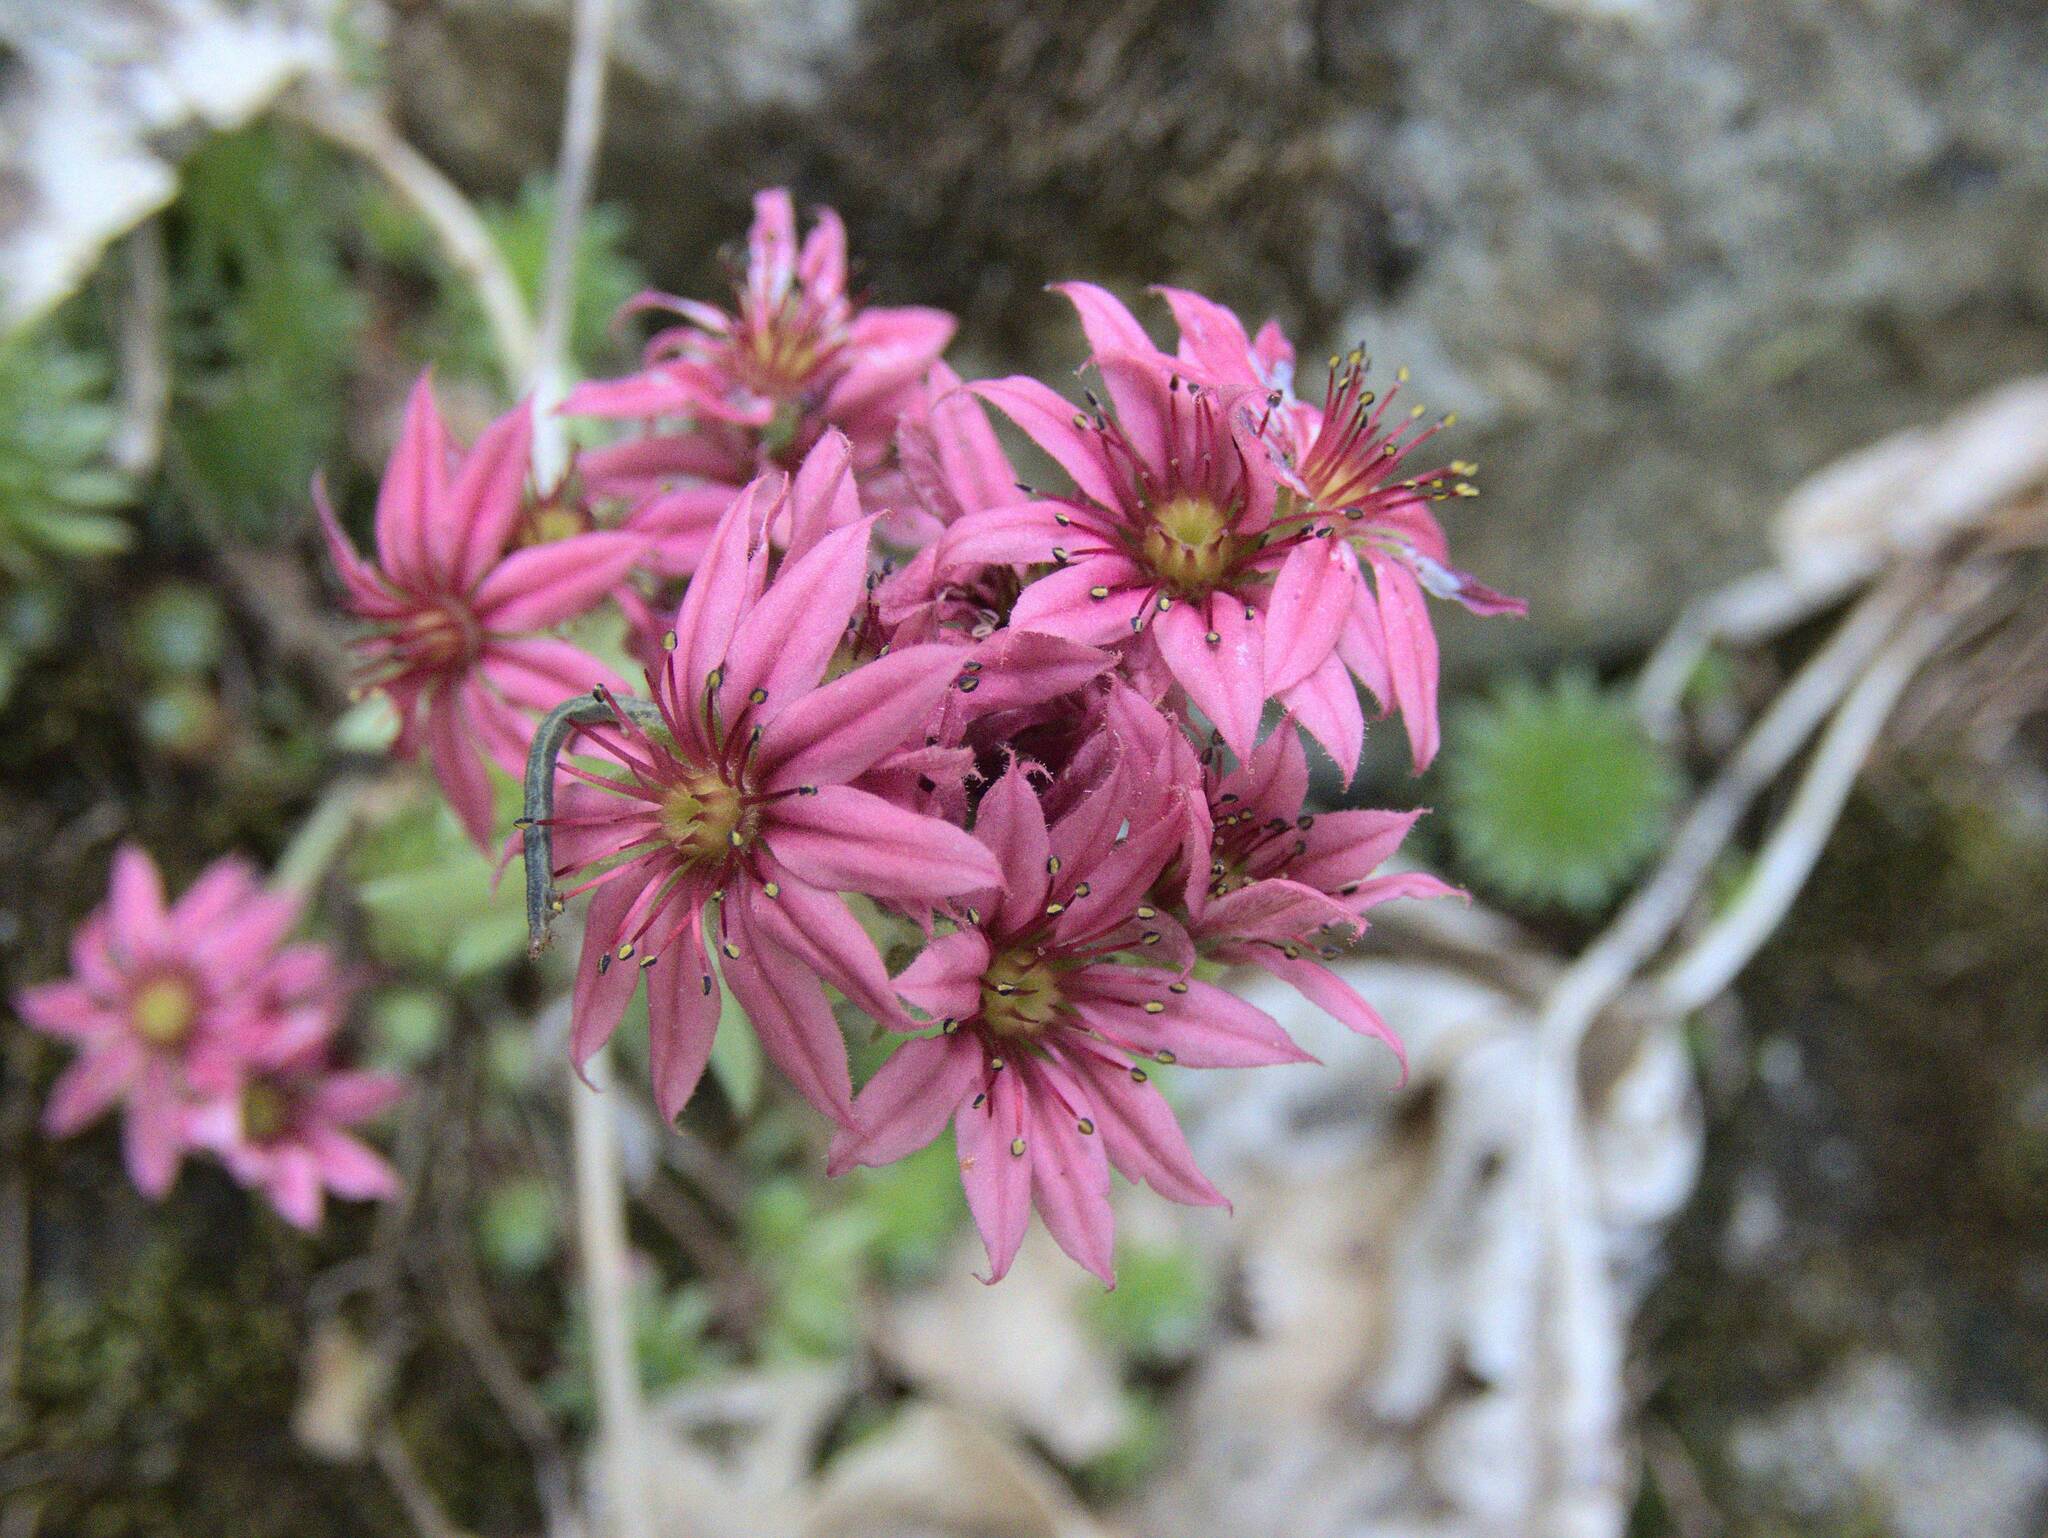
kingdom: Plantae
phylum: Tracheophyta
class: Magnoliopsida
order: Saxifragales
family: Crassulaceae
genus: Sempervivum
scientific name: Sempervivum arachnoideum
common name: Cobweb house-leek
